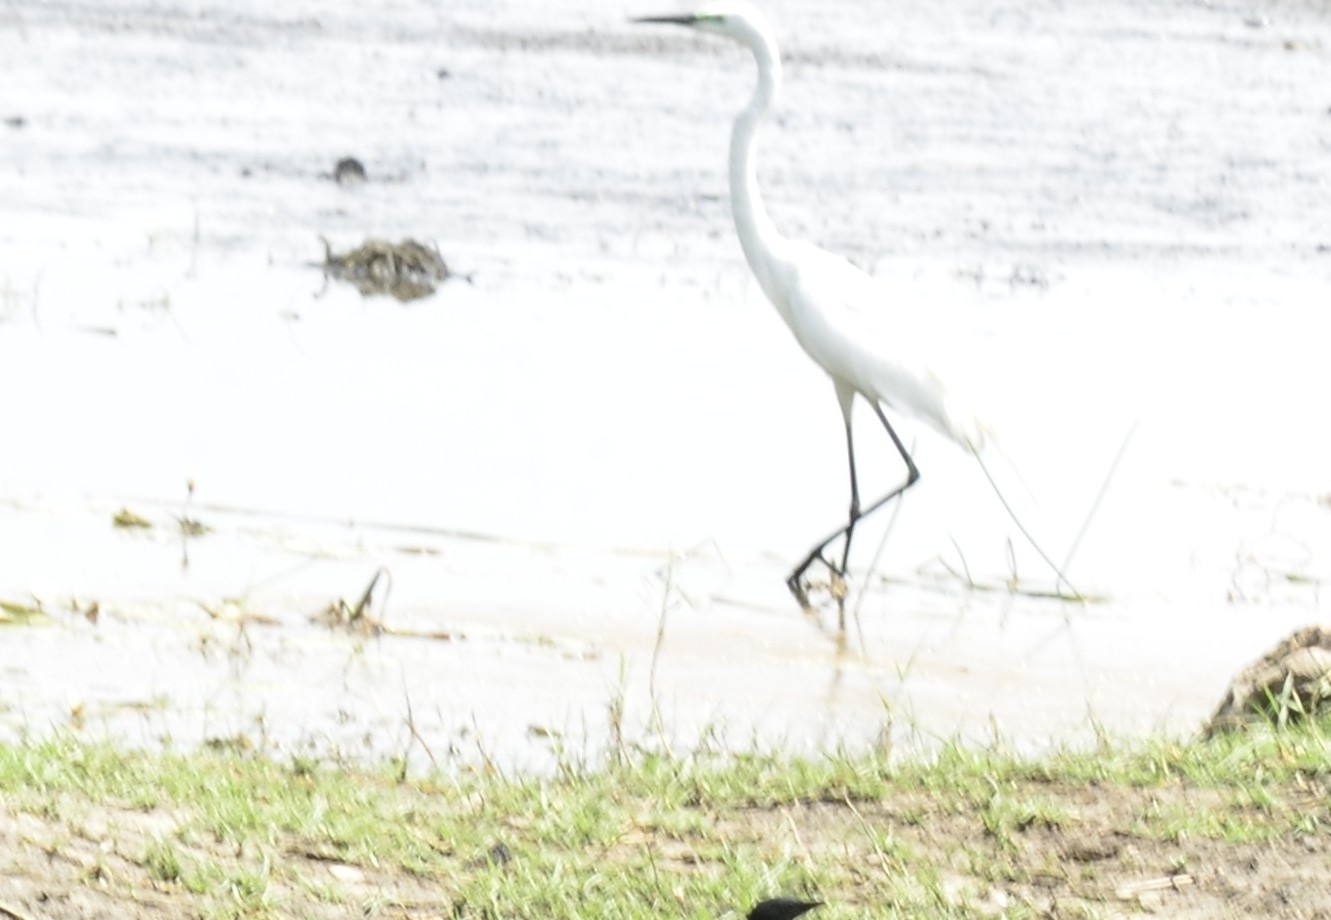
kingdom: Animalia
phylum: Chordata
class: Aves
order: Pelecaniformes
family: Ardeidae
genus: Ardea
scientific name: Ardea alba
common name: Great egret
